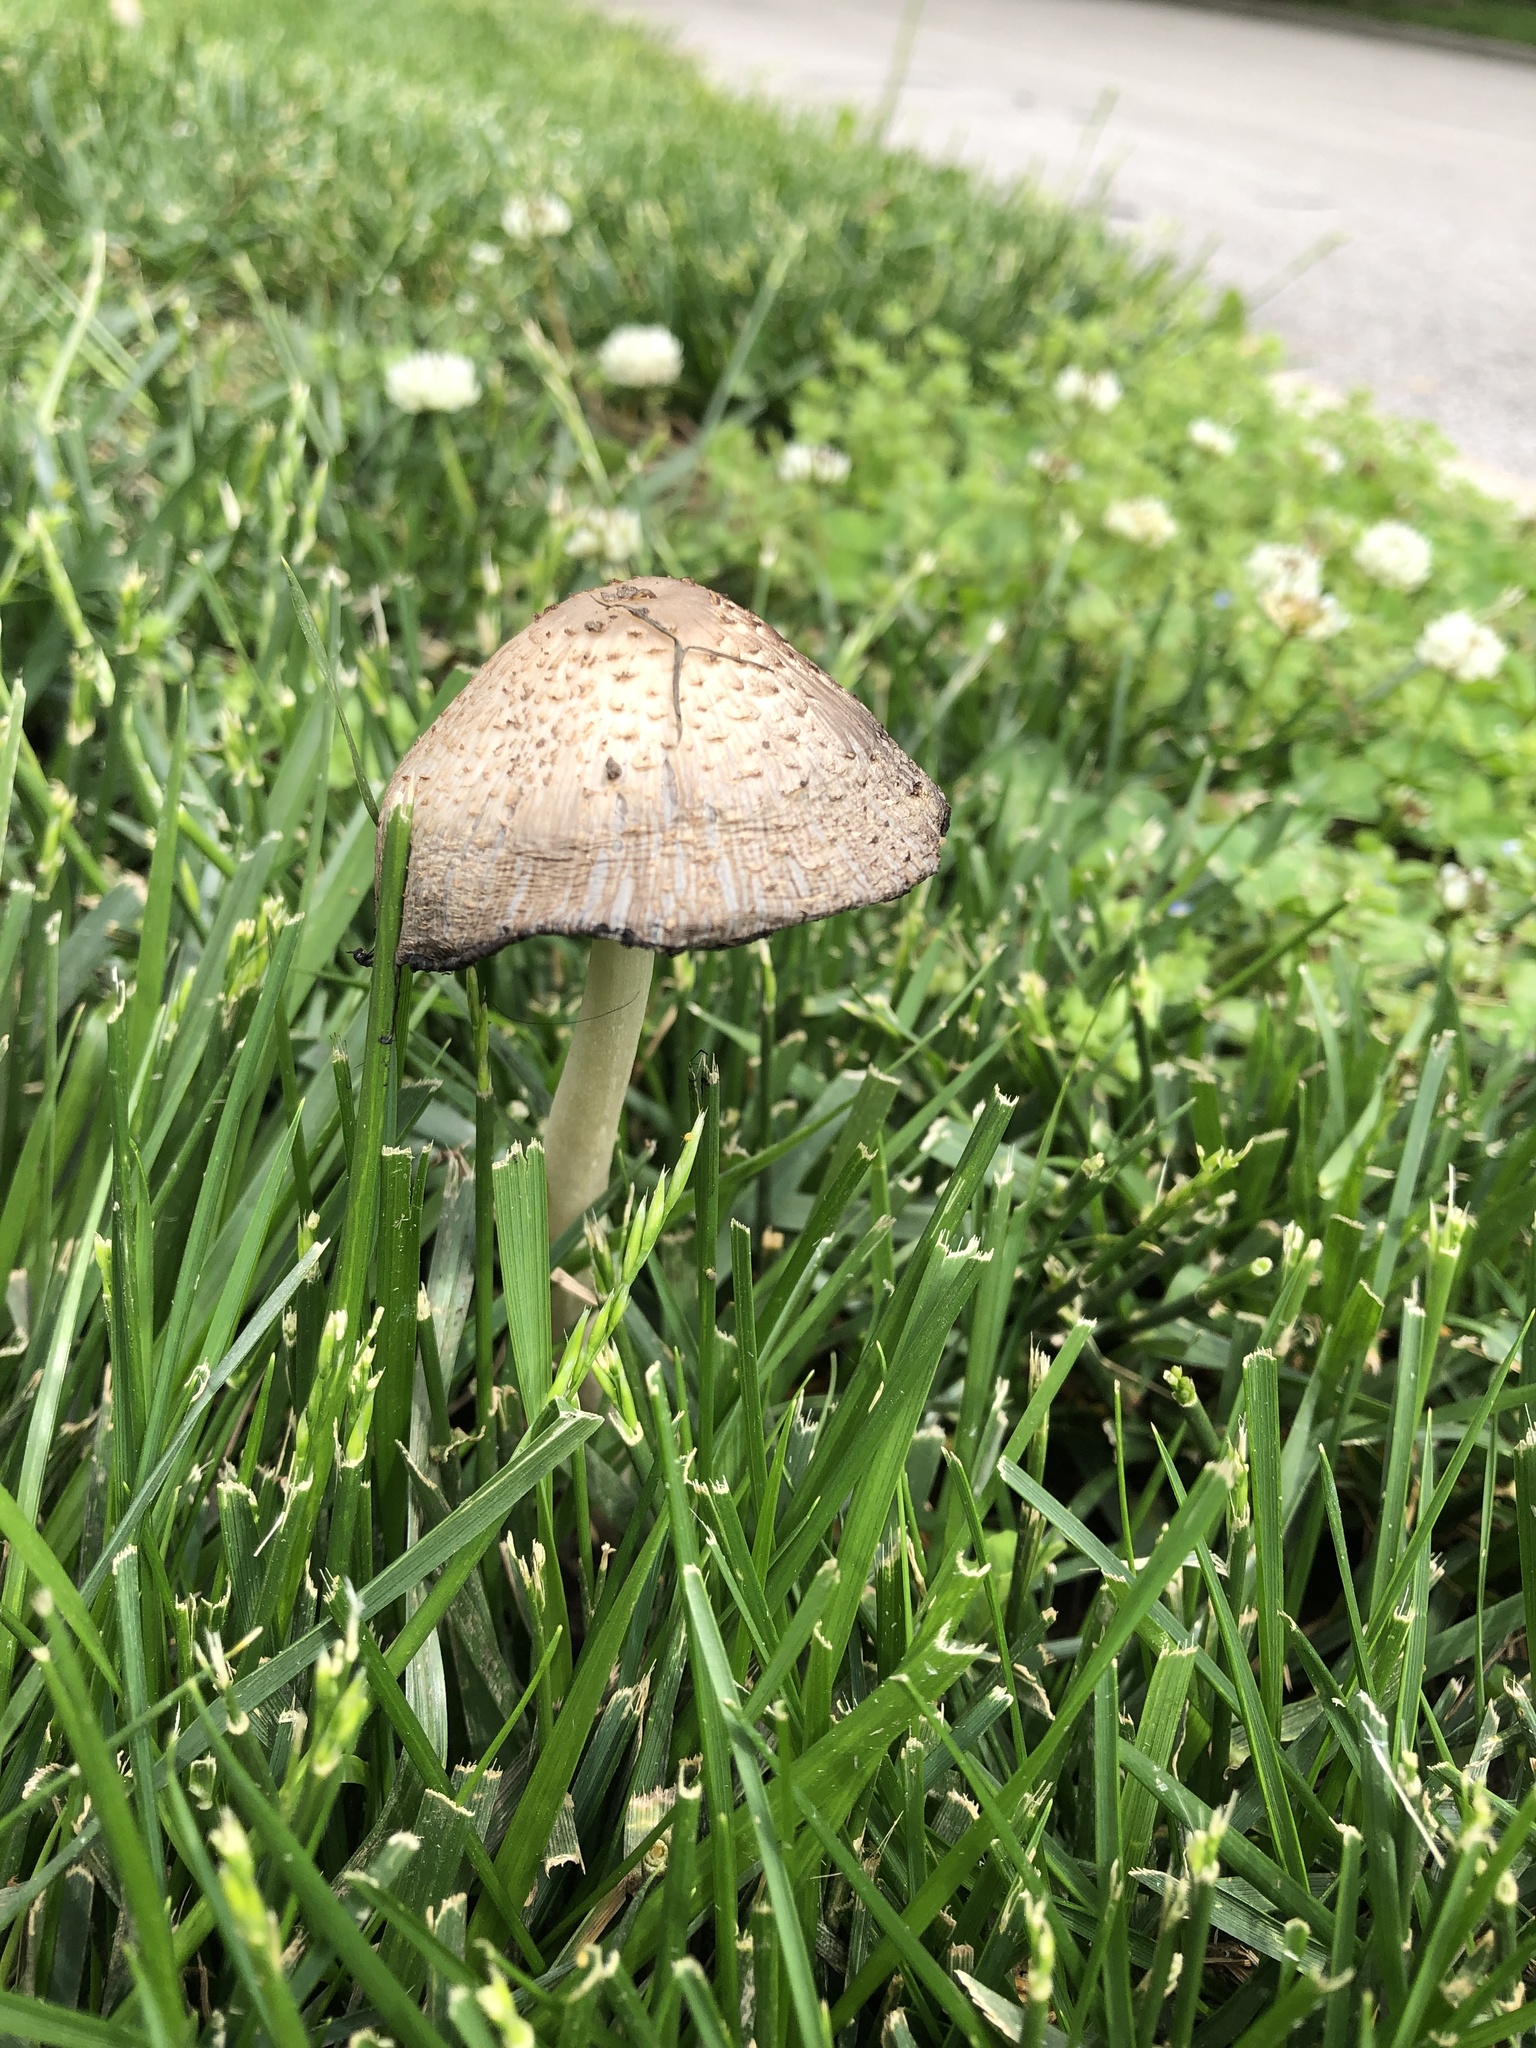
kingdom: Fungi
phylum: Basidiomycota
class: Agaricomycetes
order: Agaricales
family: Psathyrellaceae
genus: Coprinopsis
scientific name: Coprinopsis atramentaria
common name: Common ink-cap
